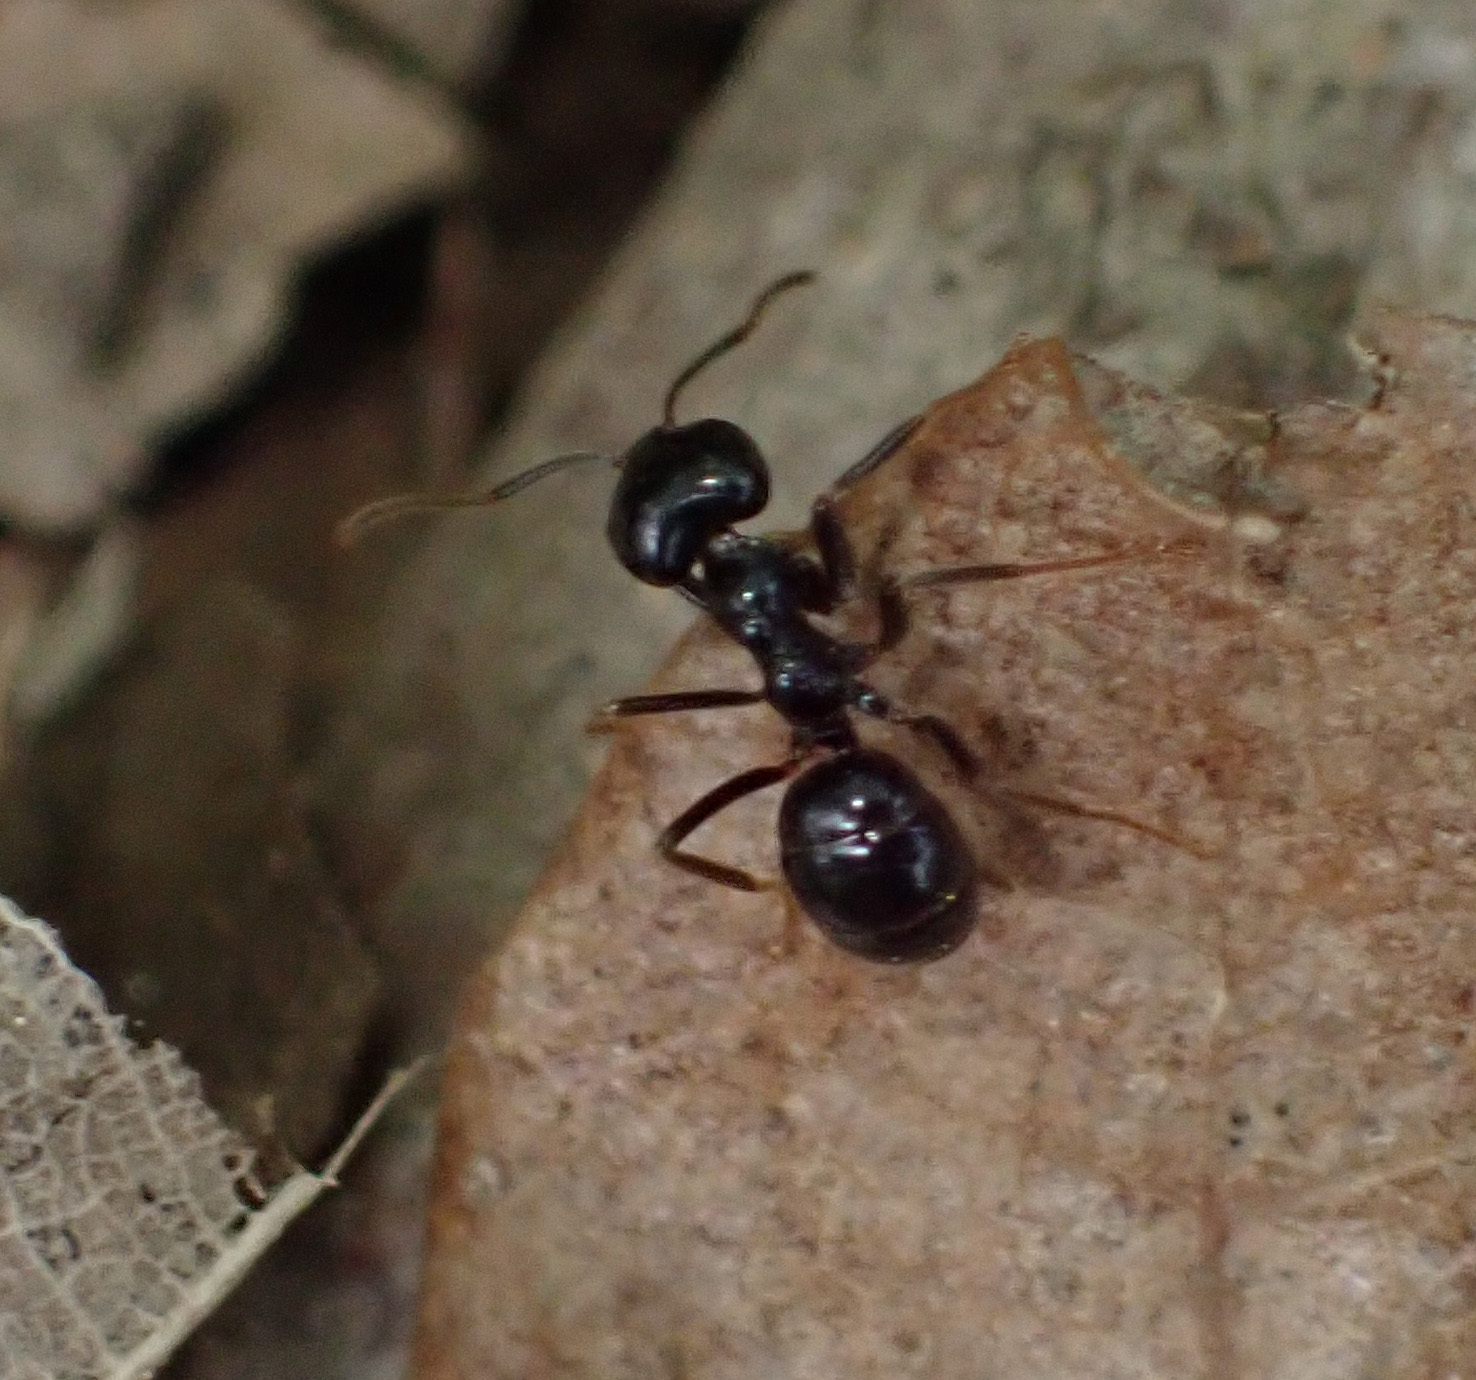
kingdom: Animalia
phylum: Arthropoda
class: Insecta
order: Hymenoptera
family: Formicidae
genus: Lasius
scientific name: Lasius fuliginosus
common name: Jet ant
